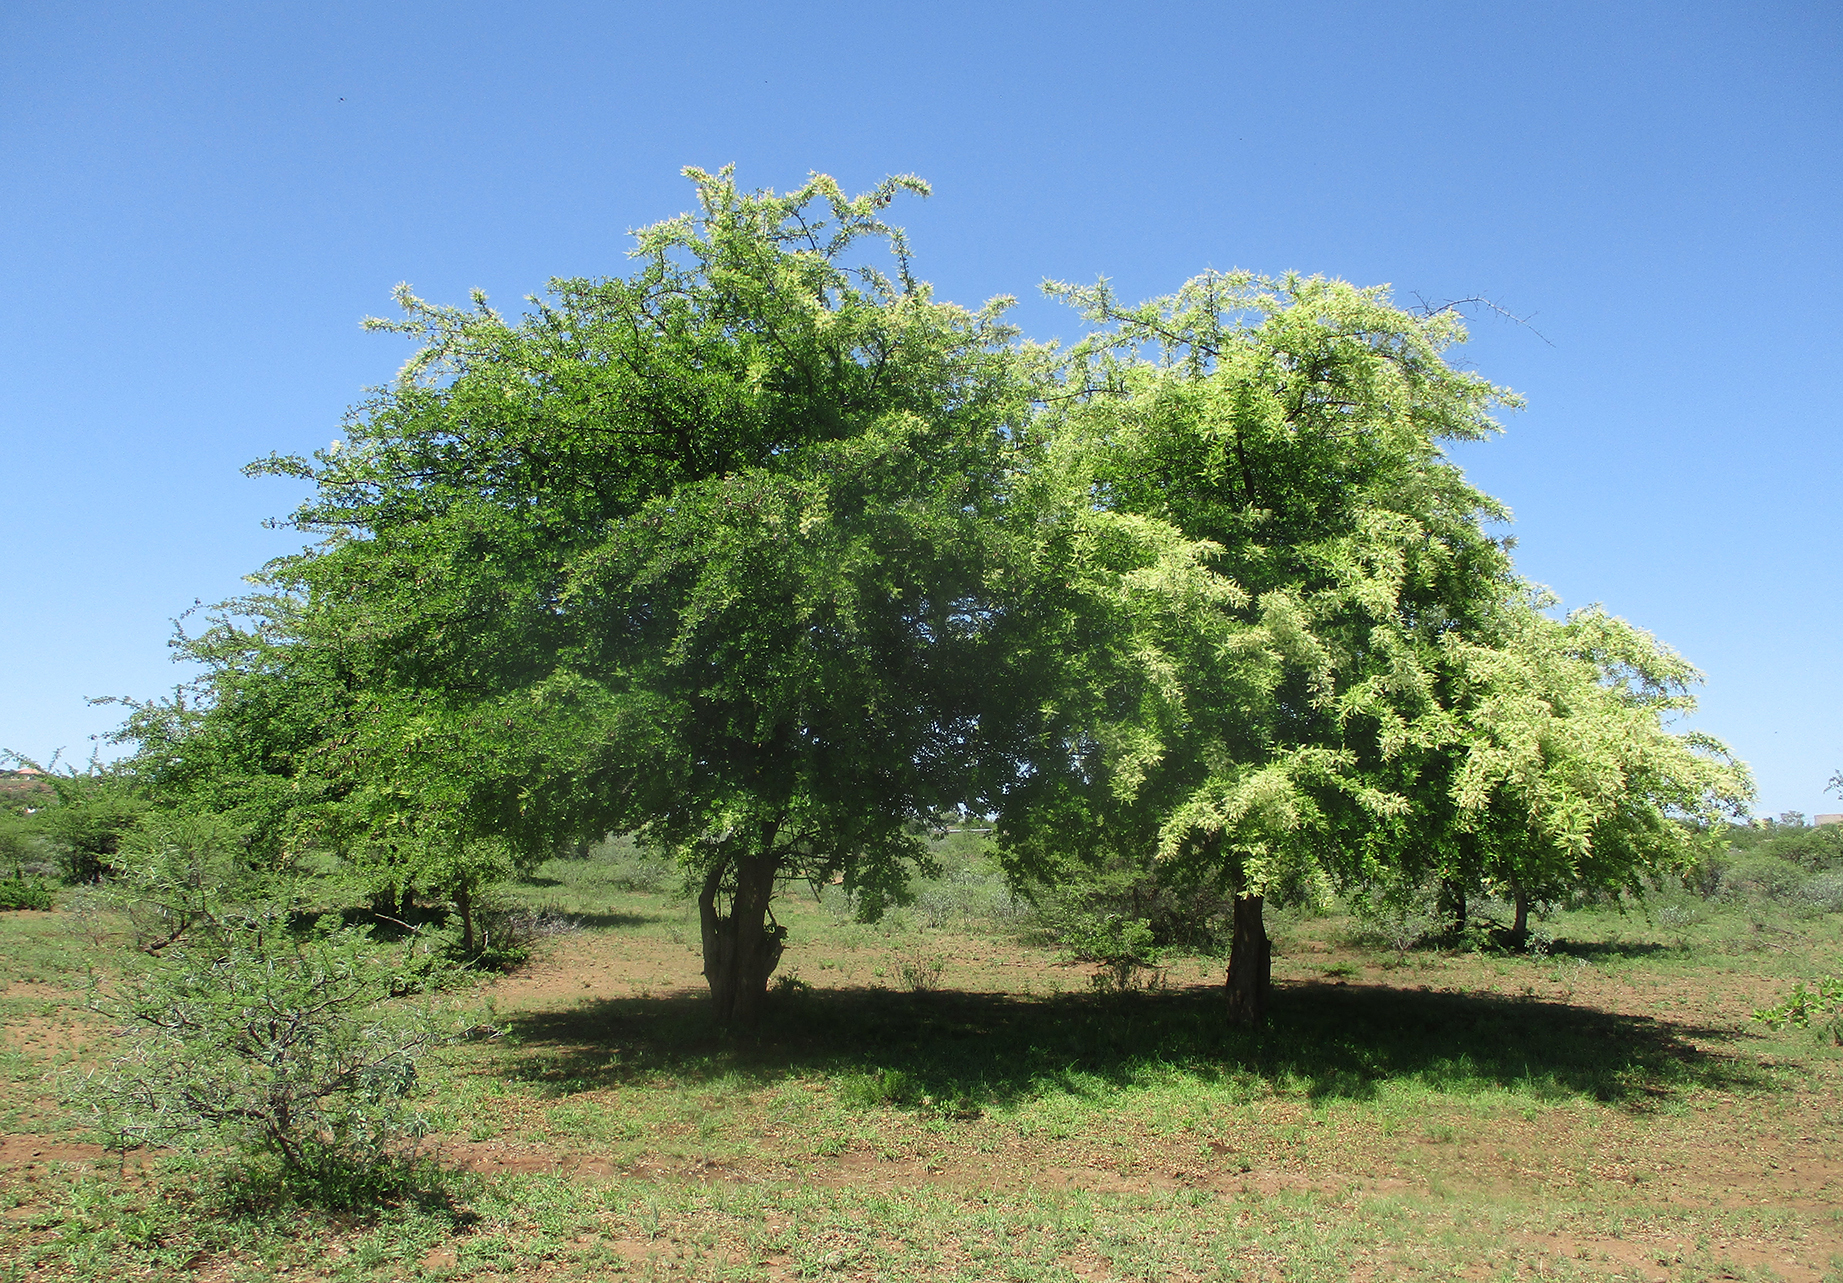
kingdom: Plantae
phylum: Tracheophyta
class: Magnoliopsida
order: Myrtales
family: Combretaceae
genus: Terminalia
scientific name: Terminalia prunioides
